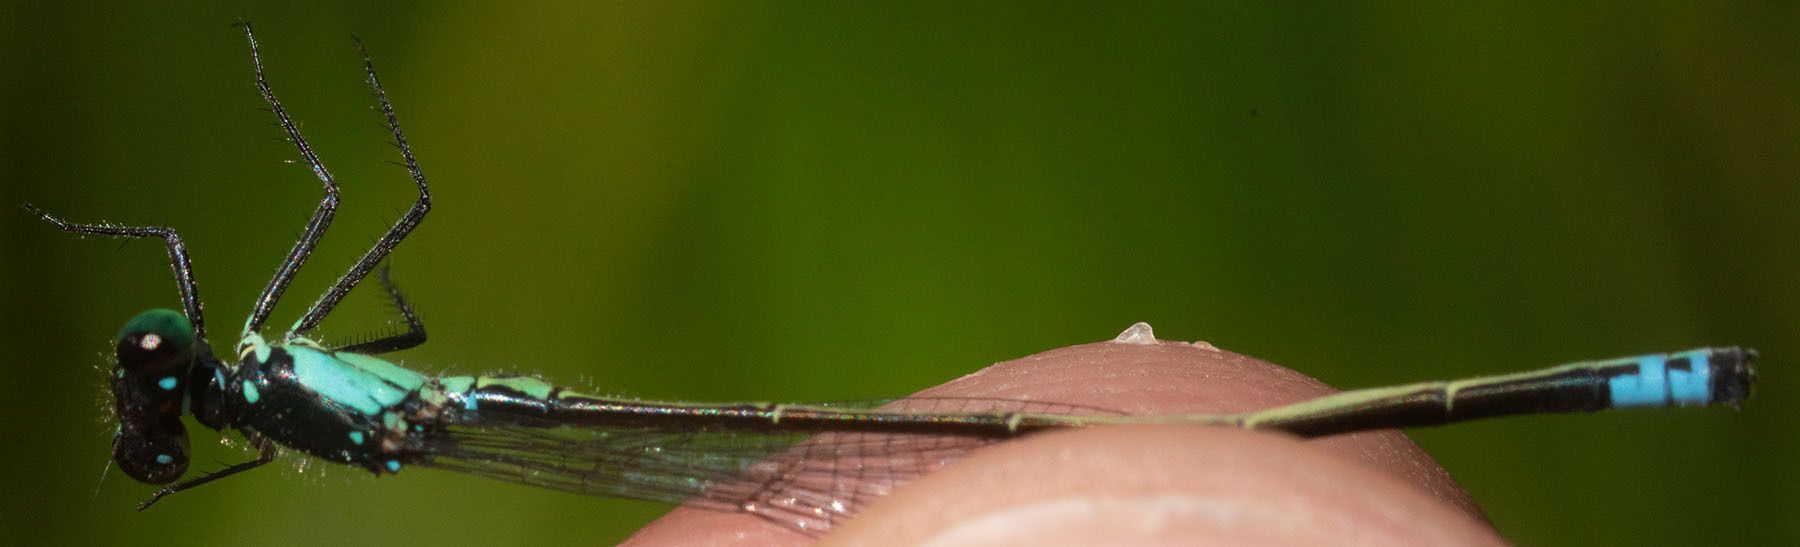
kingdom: Animalia
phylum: Arthropoda
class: Insecta
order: Odonata
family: Coenagrionidae
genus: Ischnura
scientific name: Ischnura cervula
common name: Pacific forktail
